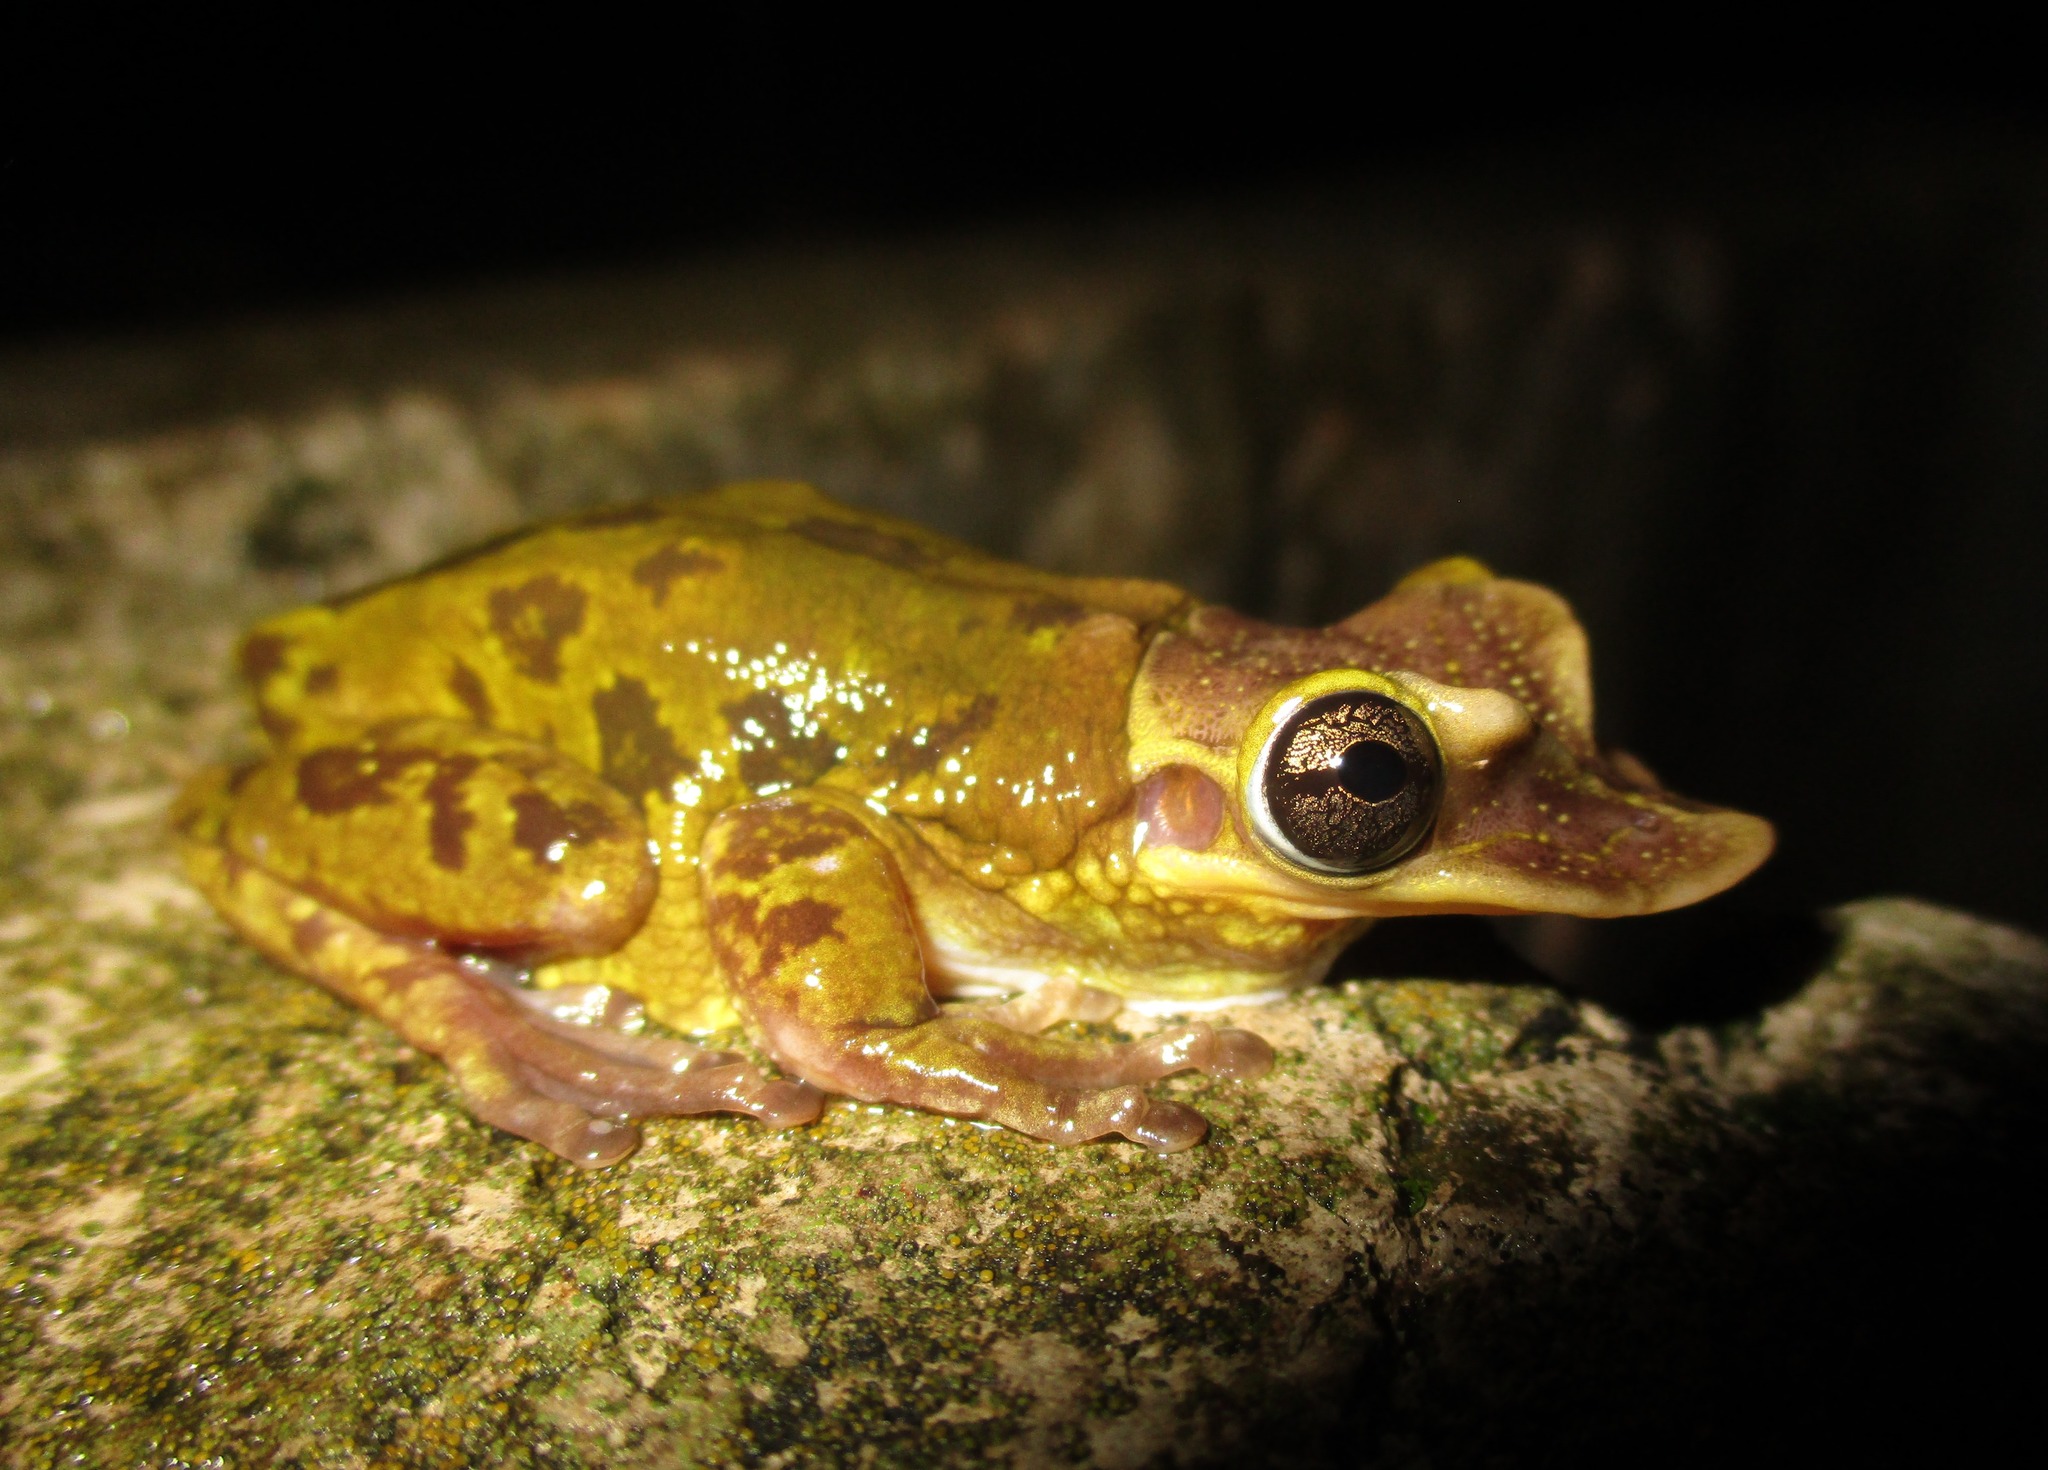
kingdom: Animalia
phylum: Chordata
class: Amphibia
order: Anura
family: Hylidae
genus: Triprion
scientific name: Triprion petasatus
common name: Yucatecan casque-headed treefrog
